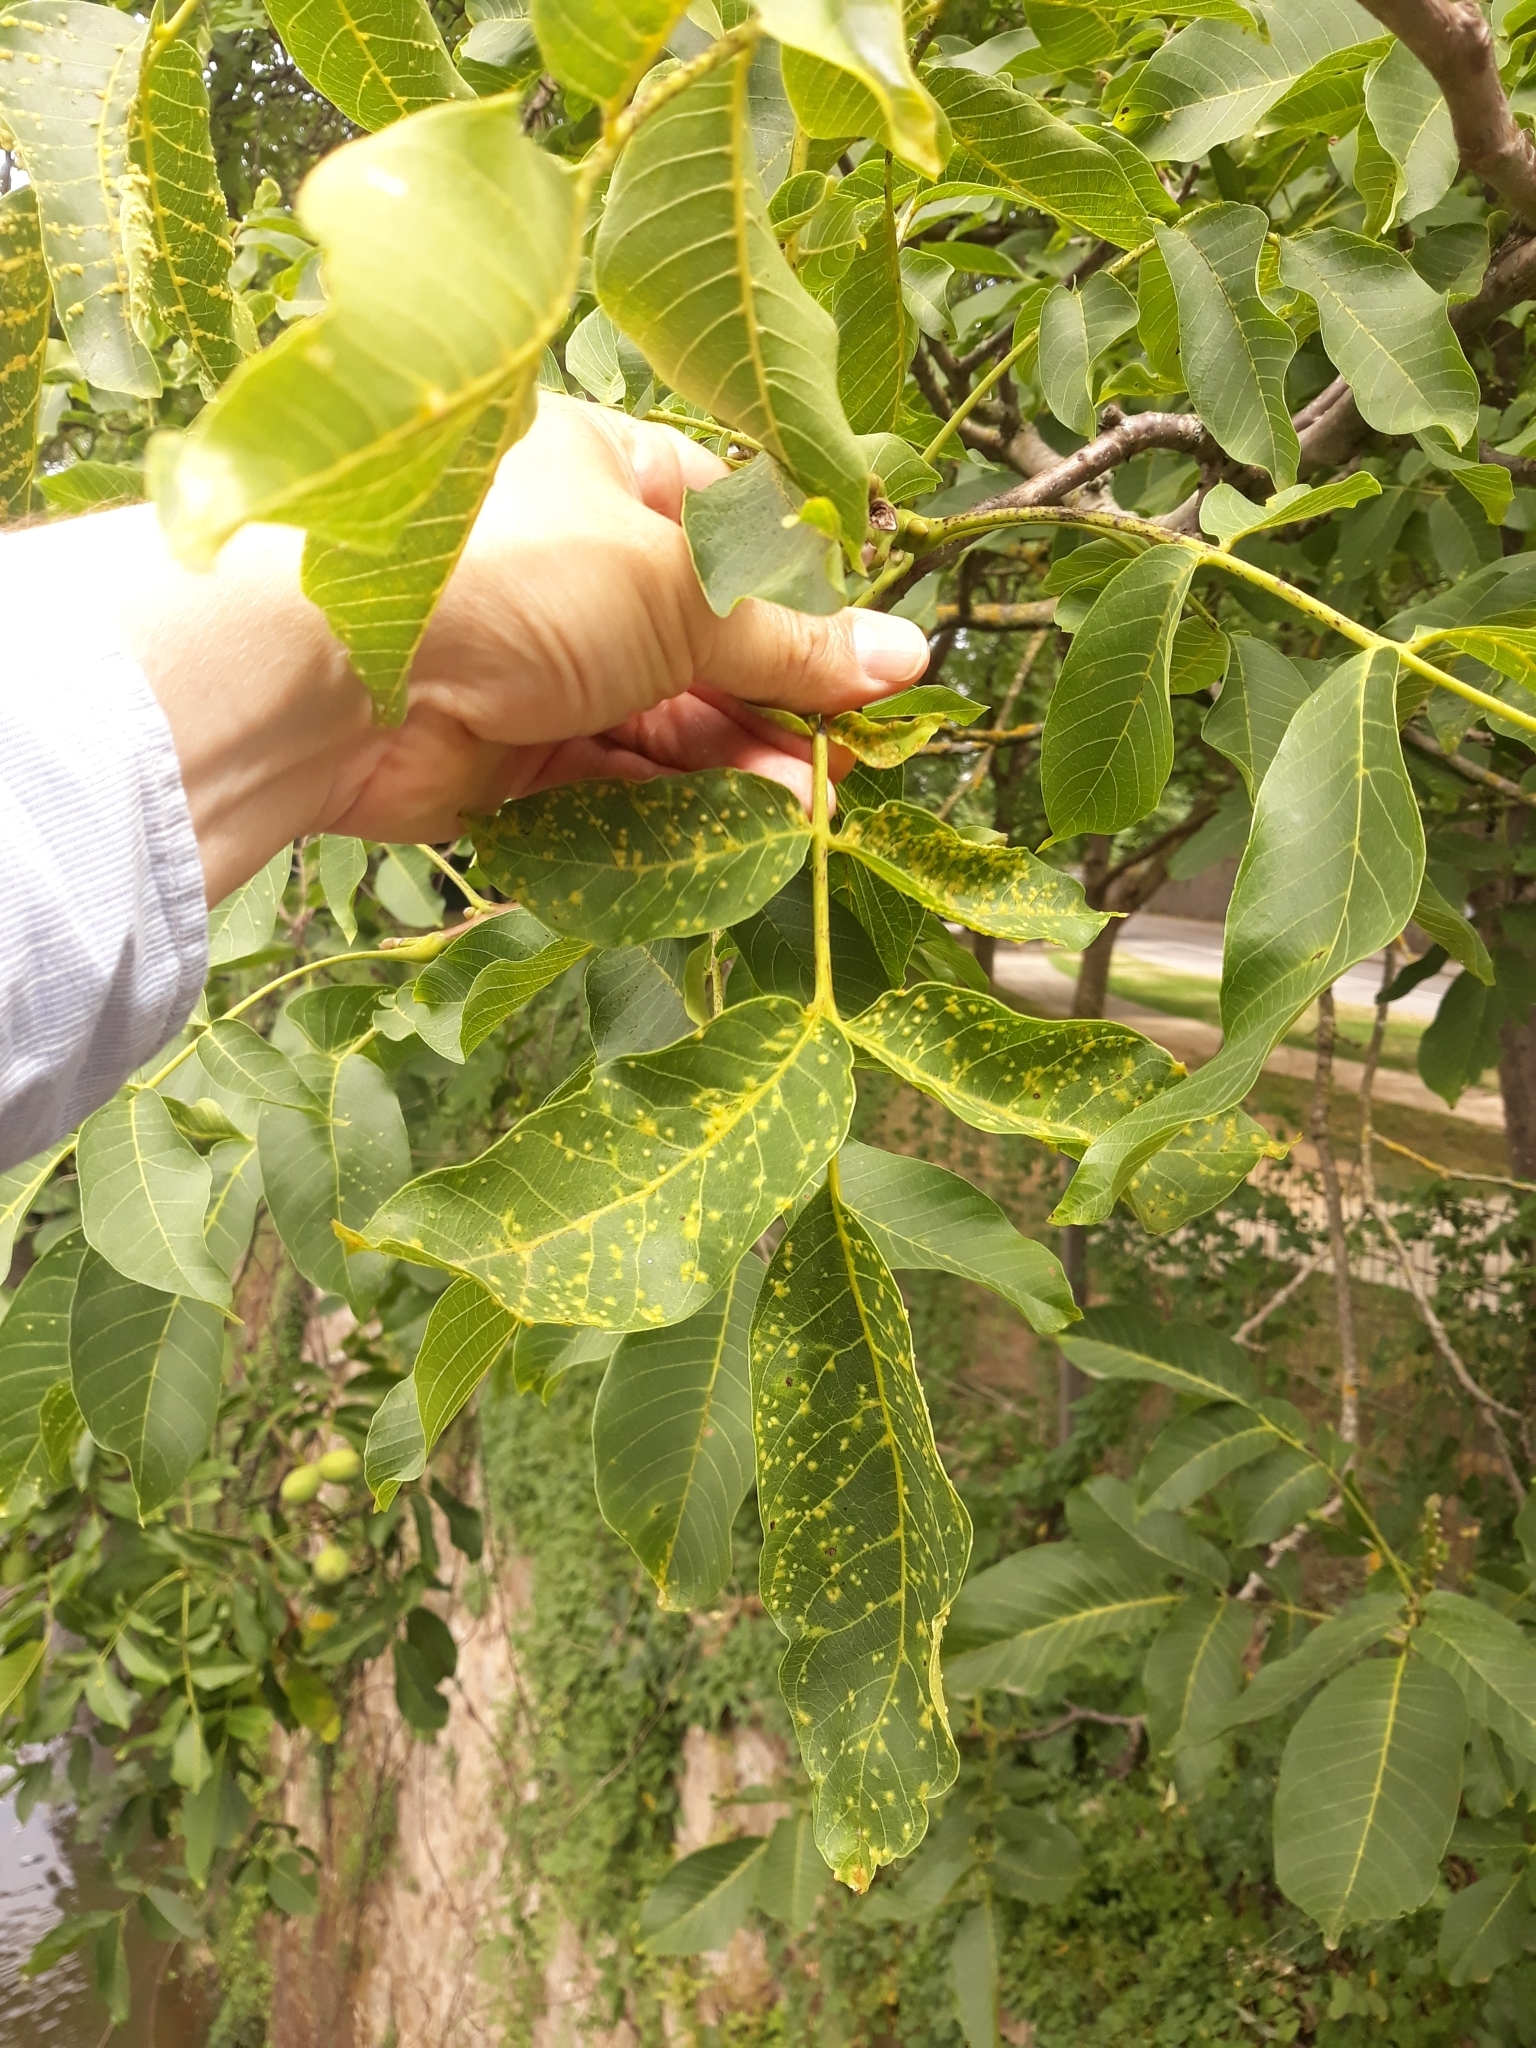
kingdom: Plantae
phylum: Tracheophyta
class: Magnoliopsida
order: Fagales
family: Juglandaceae
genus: Juglans
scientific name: Juglans regia
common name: Walnut
